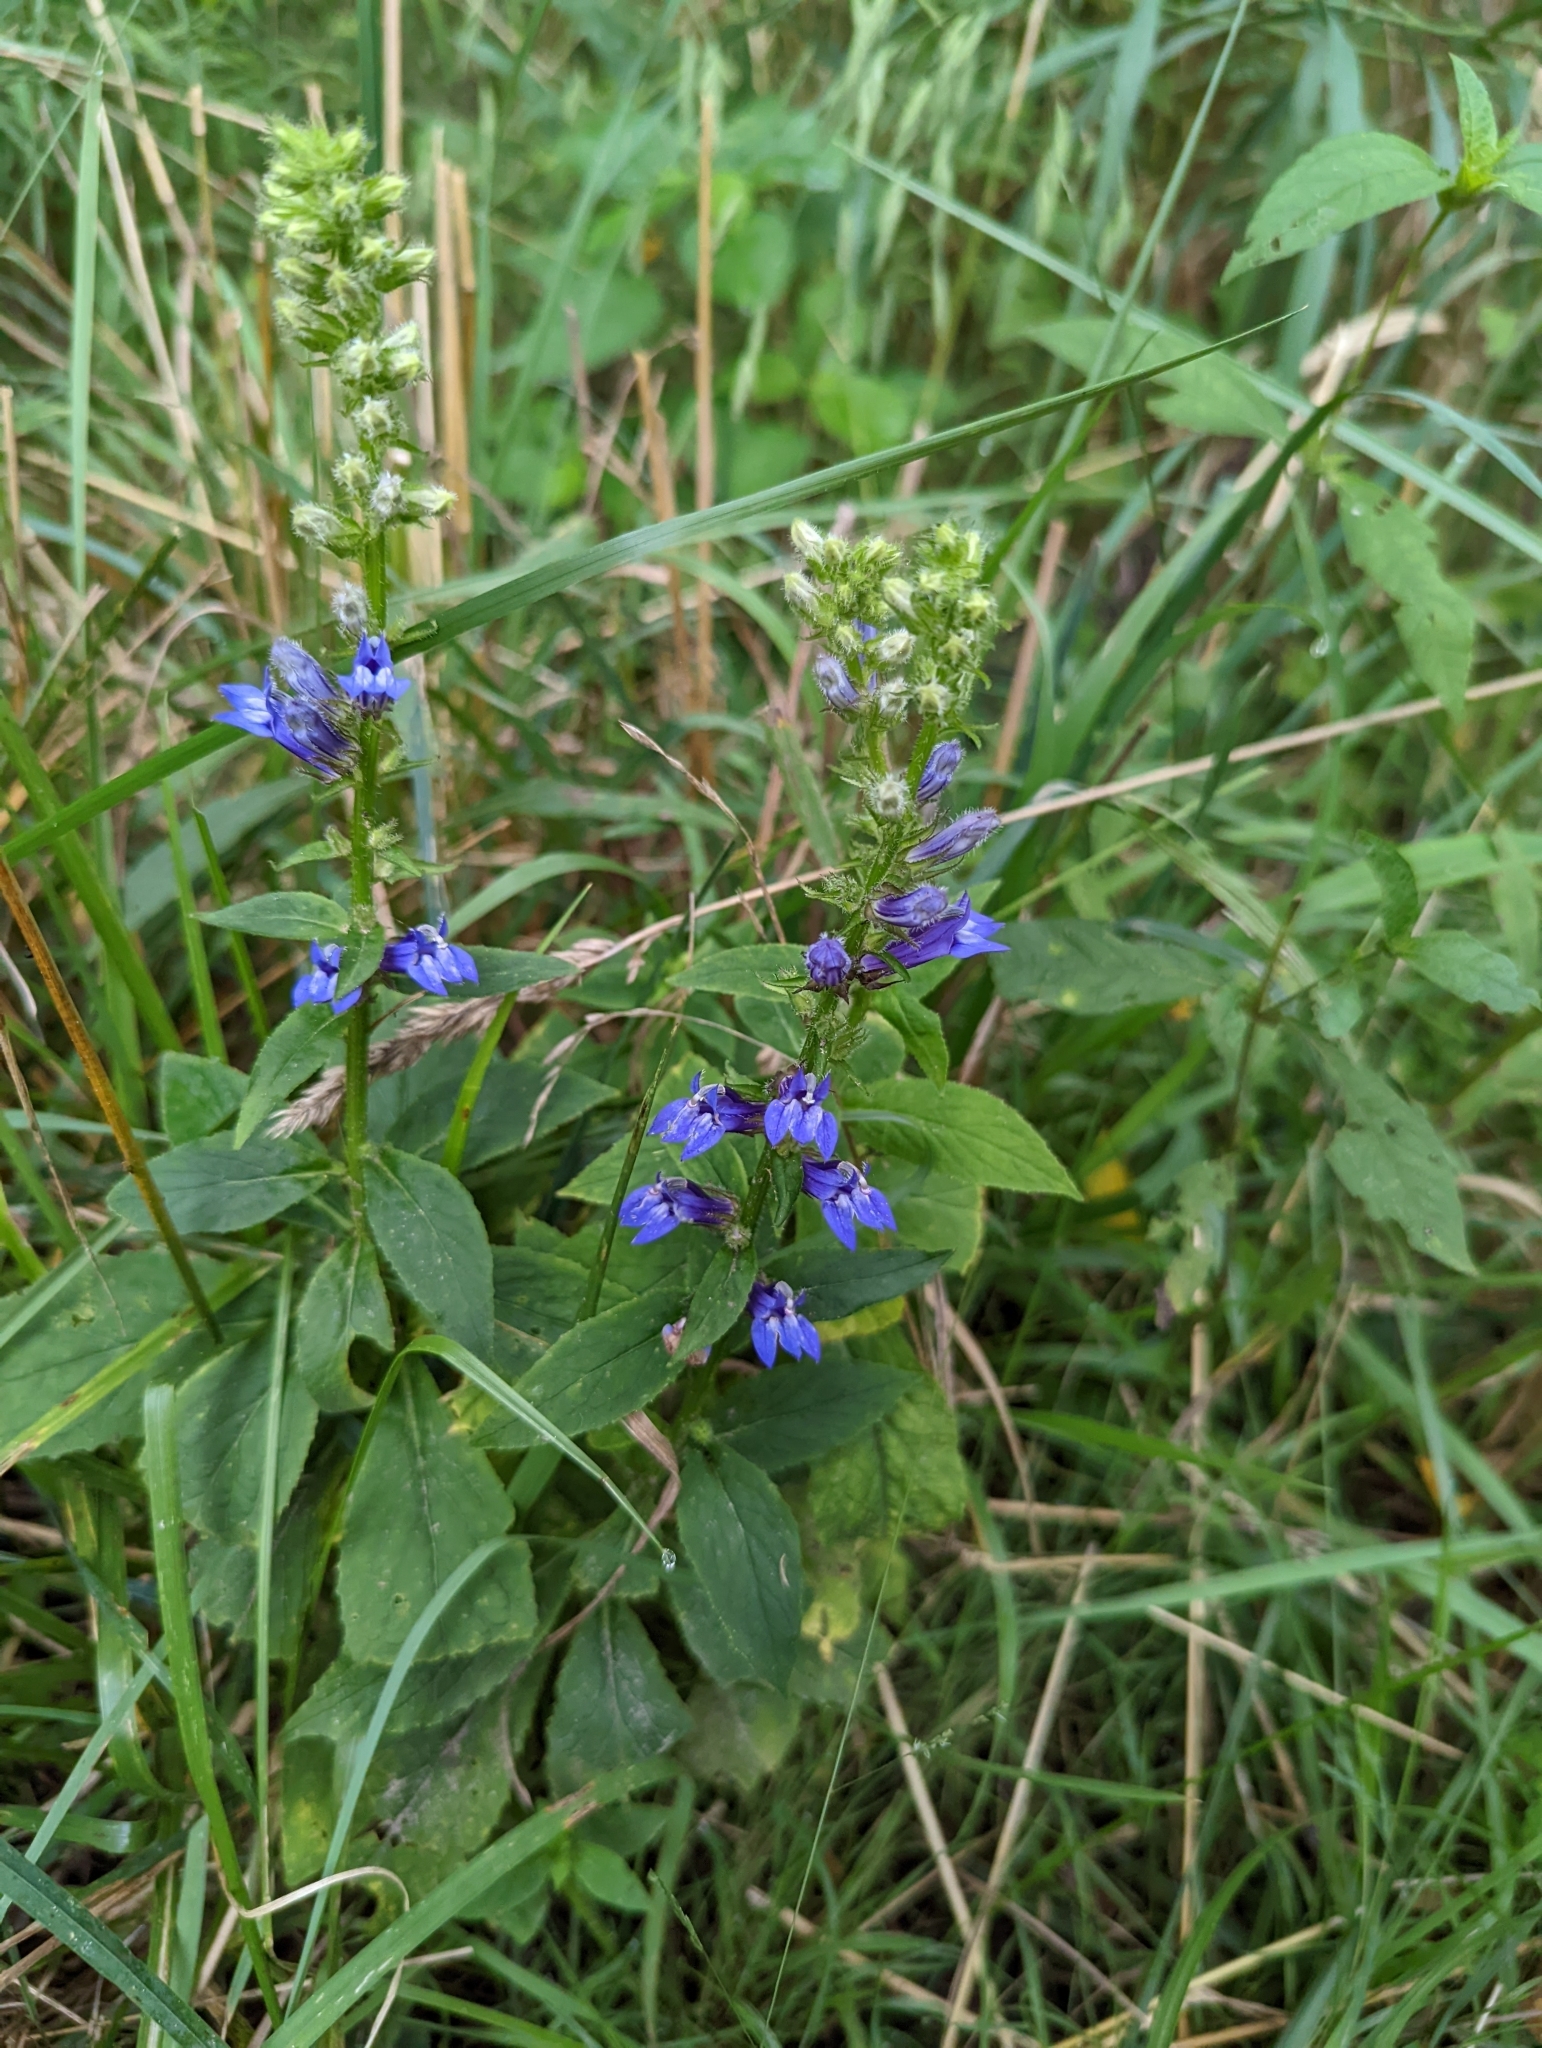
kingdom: Plantae
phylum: Tracheophyta
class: Magnoliopsida
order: Asterales
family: Campanulaceae
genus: Lobelia
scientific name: Lobelia siphilitica
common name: Great lobelia
